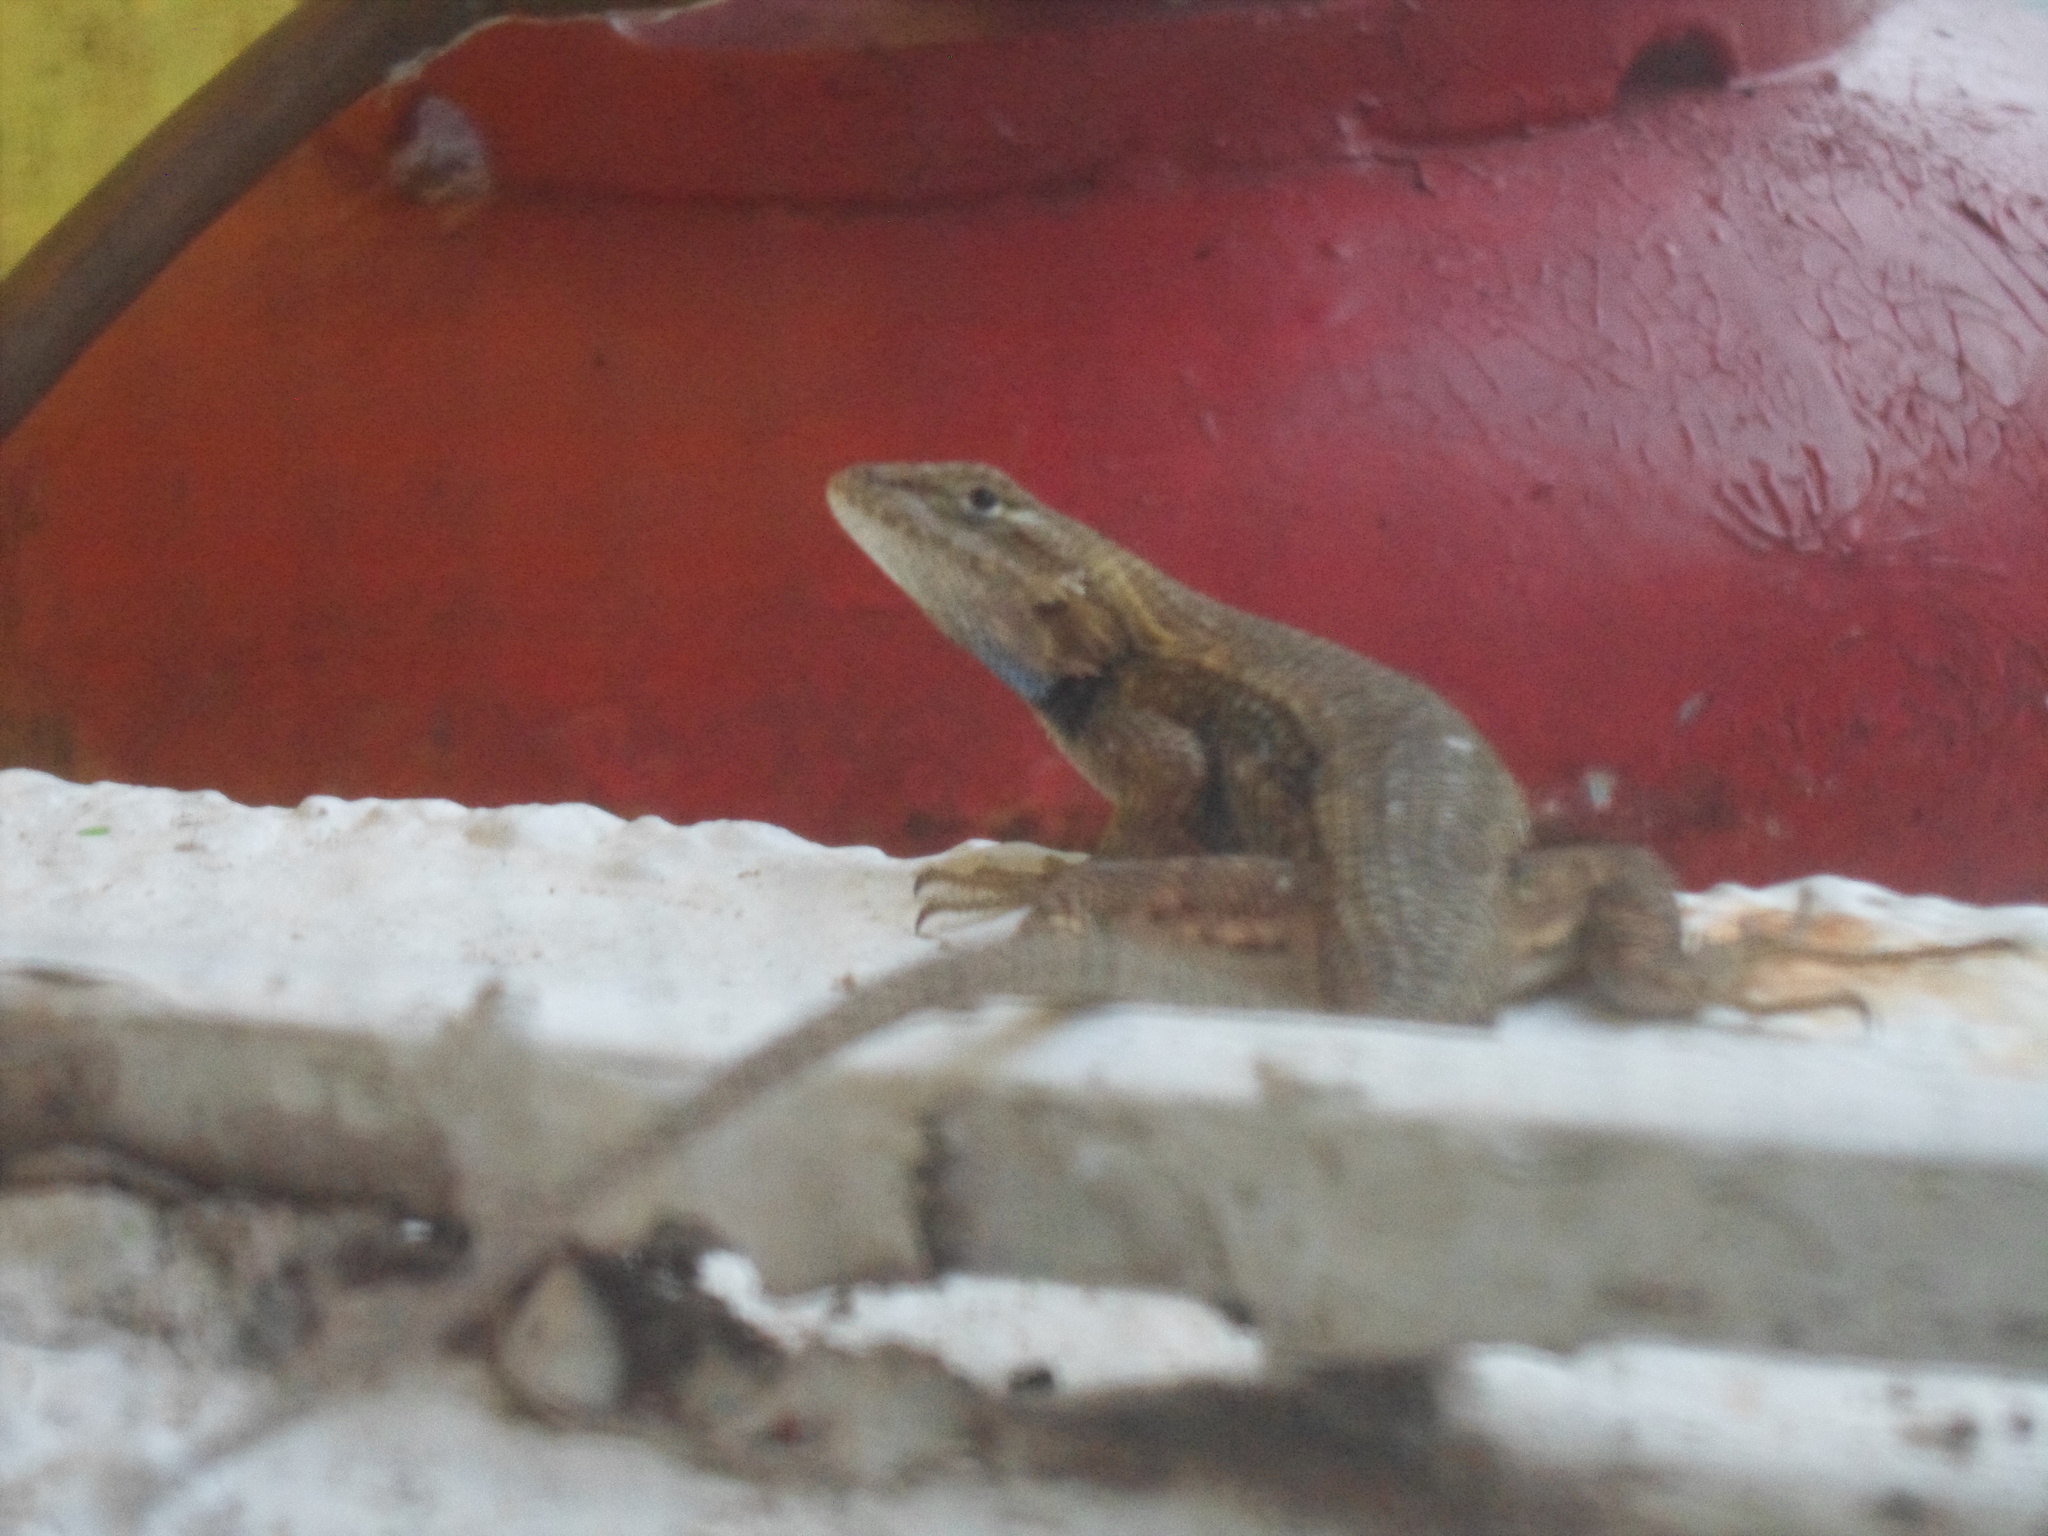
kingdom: Animalia
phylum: Chordata
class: Squamata
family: Phrynosomatidae
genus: Sceloporus
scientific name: Sceloporus edbelli
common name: Bell's spiny lizard
